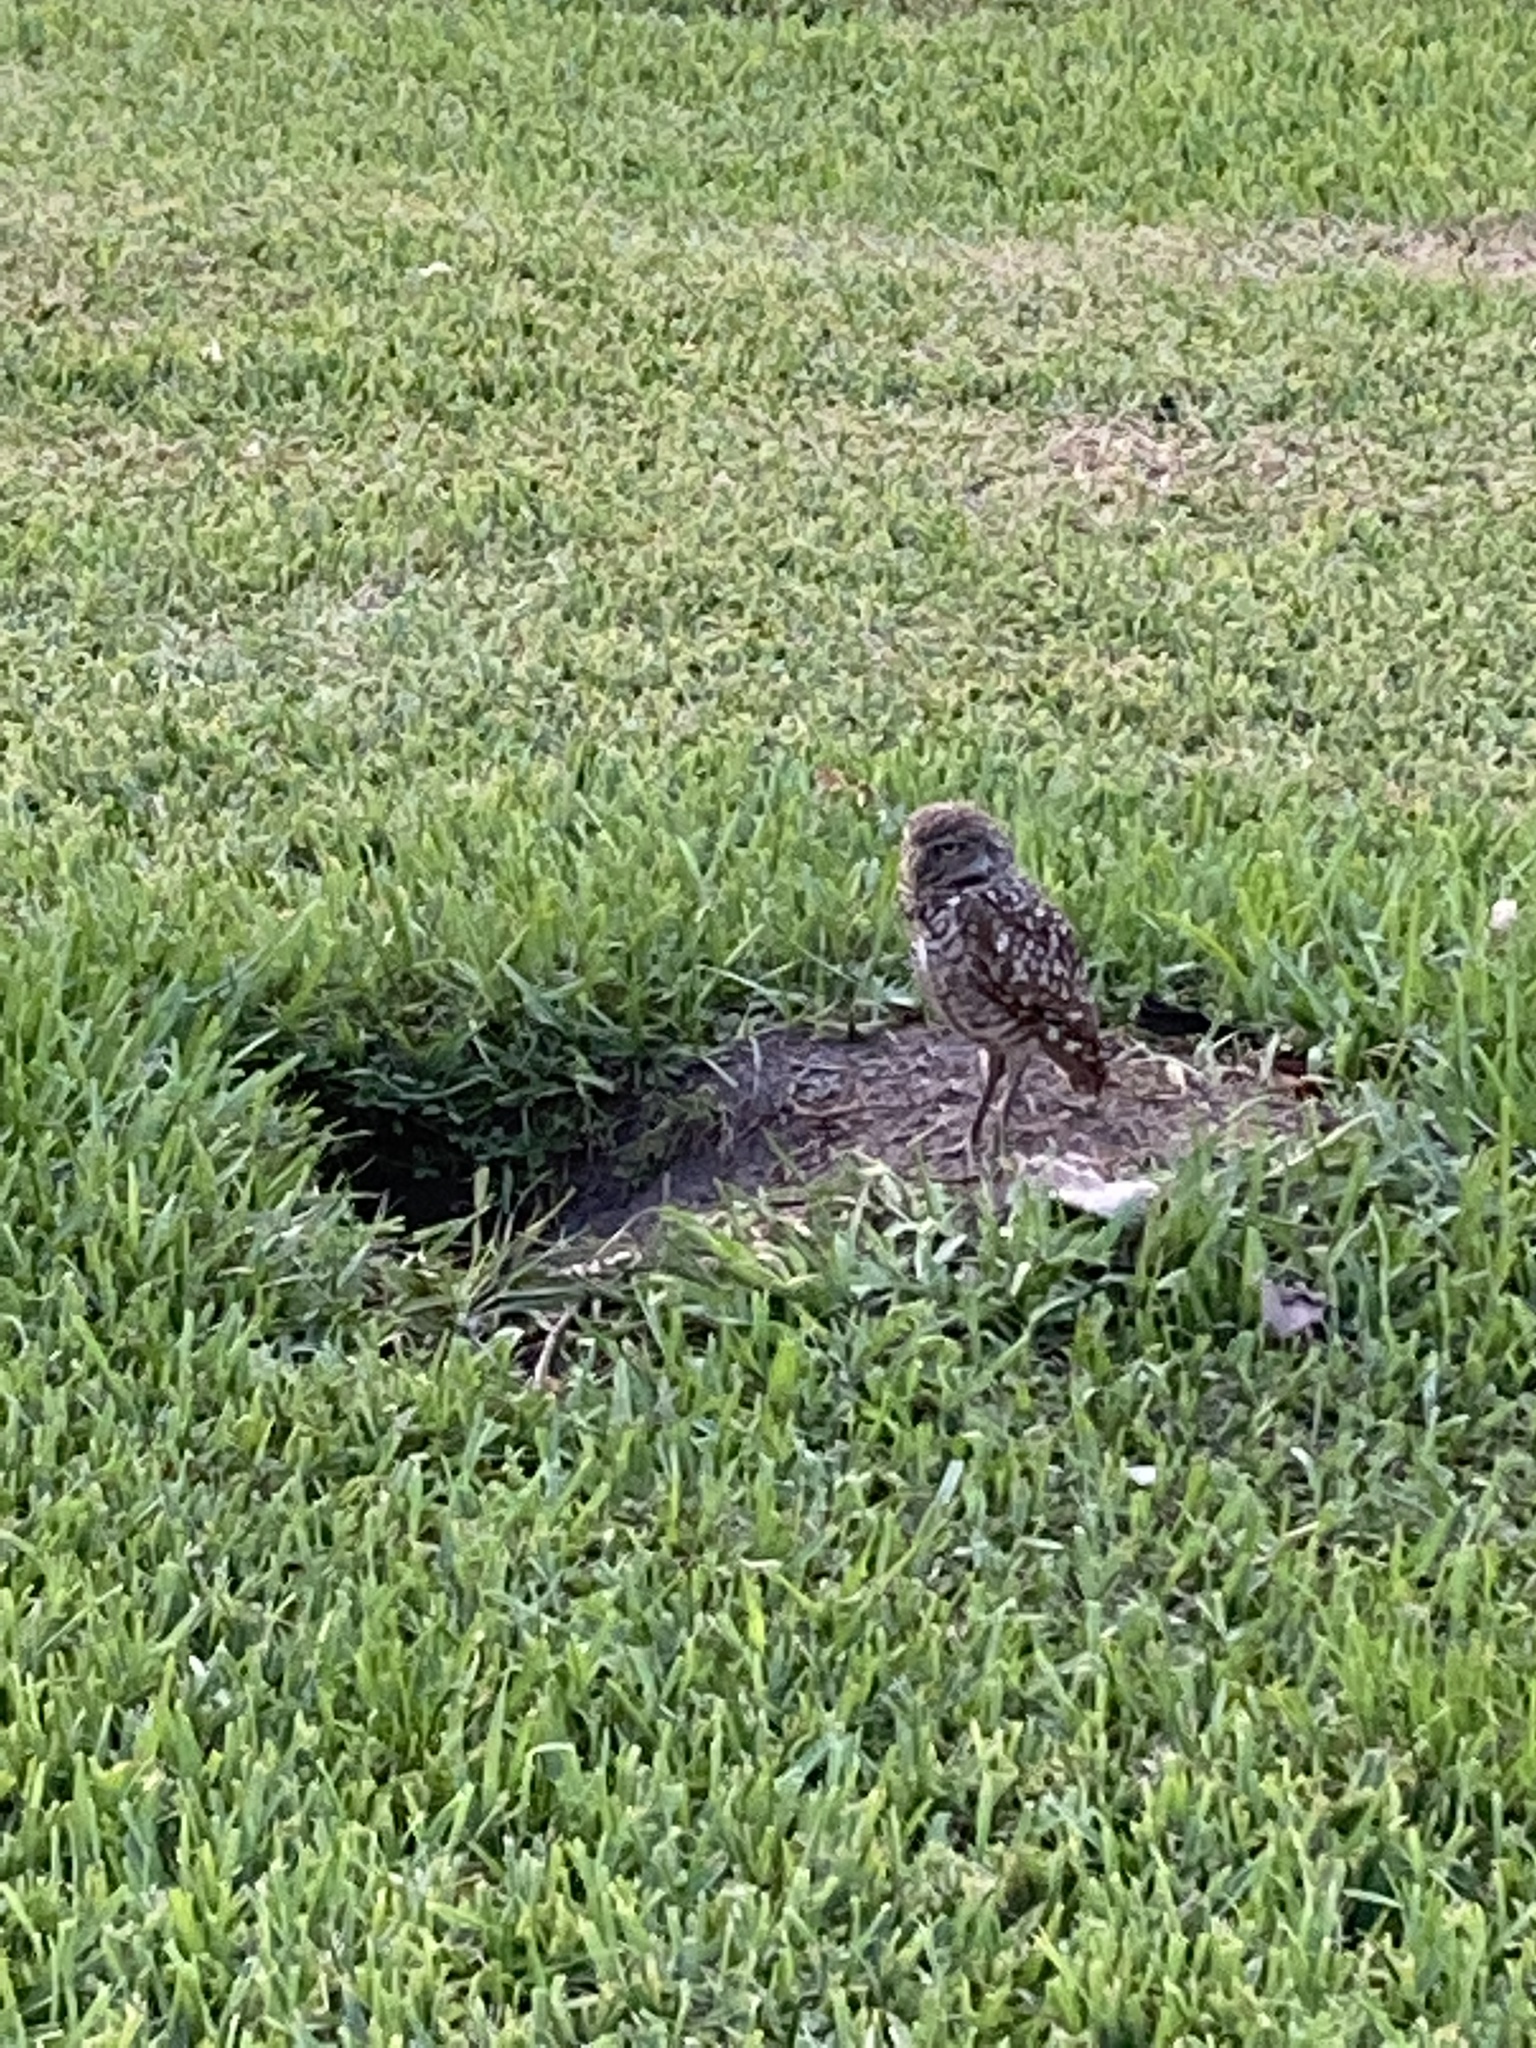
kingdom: Animalia
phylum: Chordata
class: Aves
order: Strigiformes
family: Strigidae
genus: Athene
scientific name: Athene cunicularia
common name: Burrowing owl
